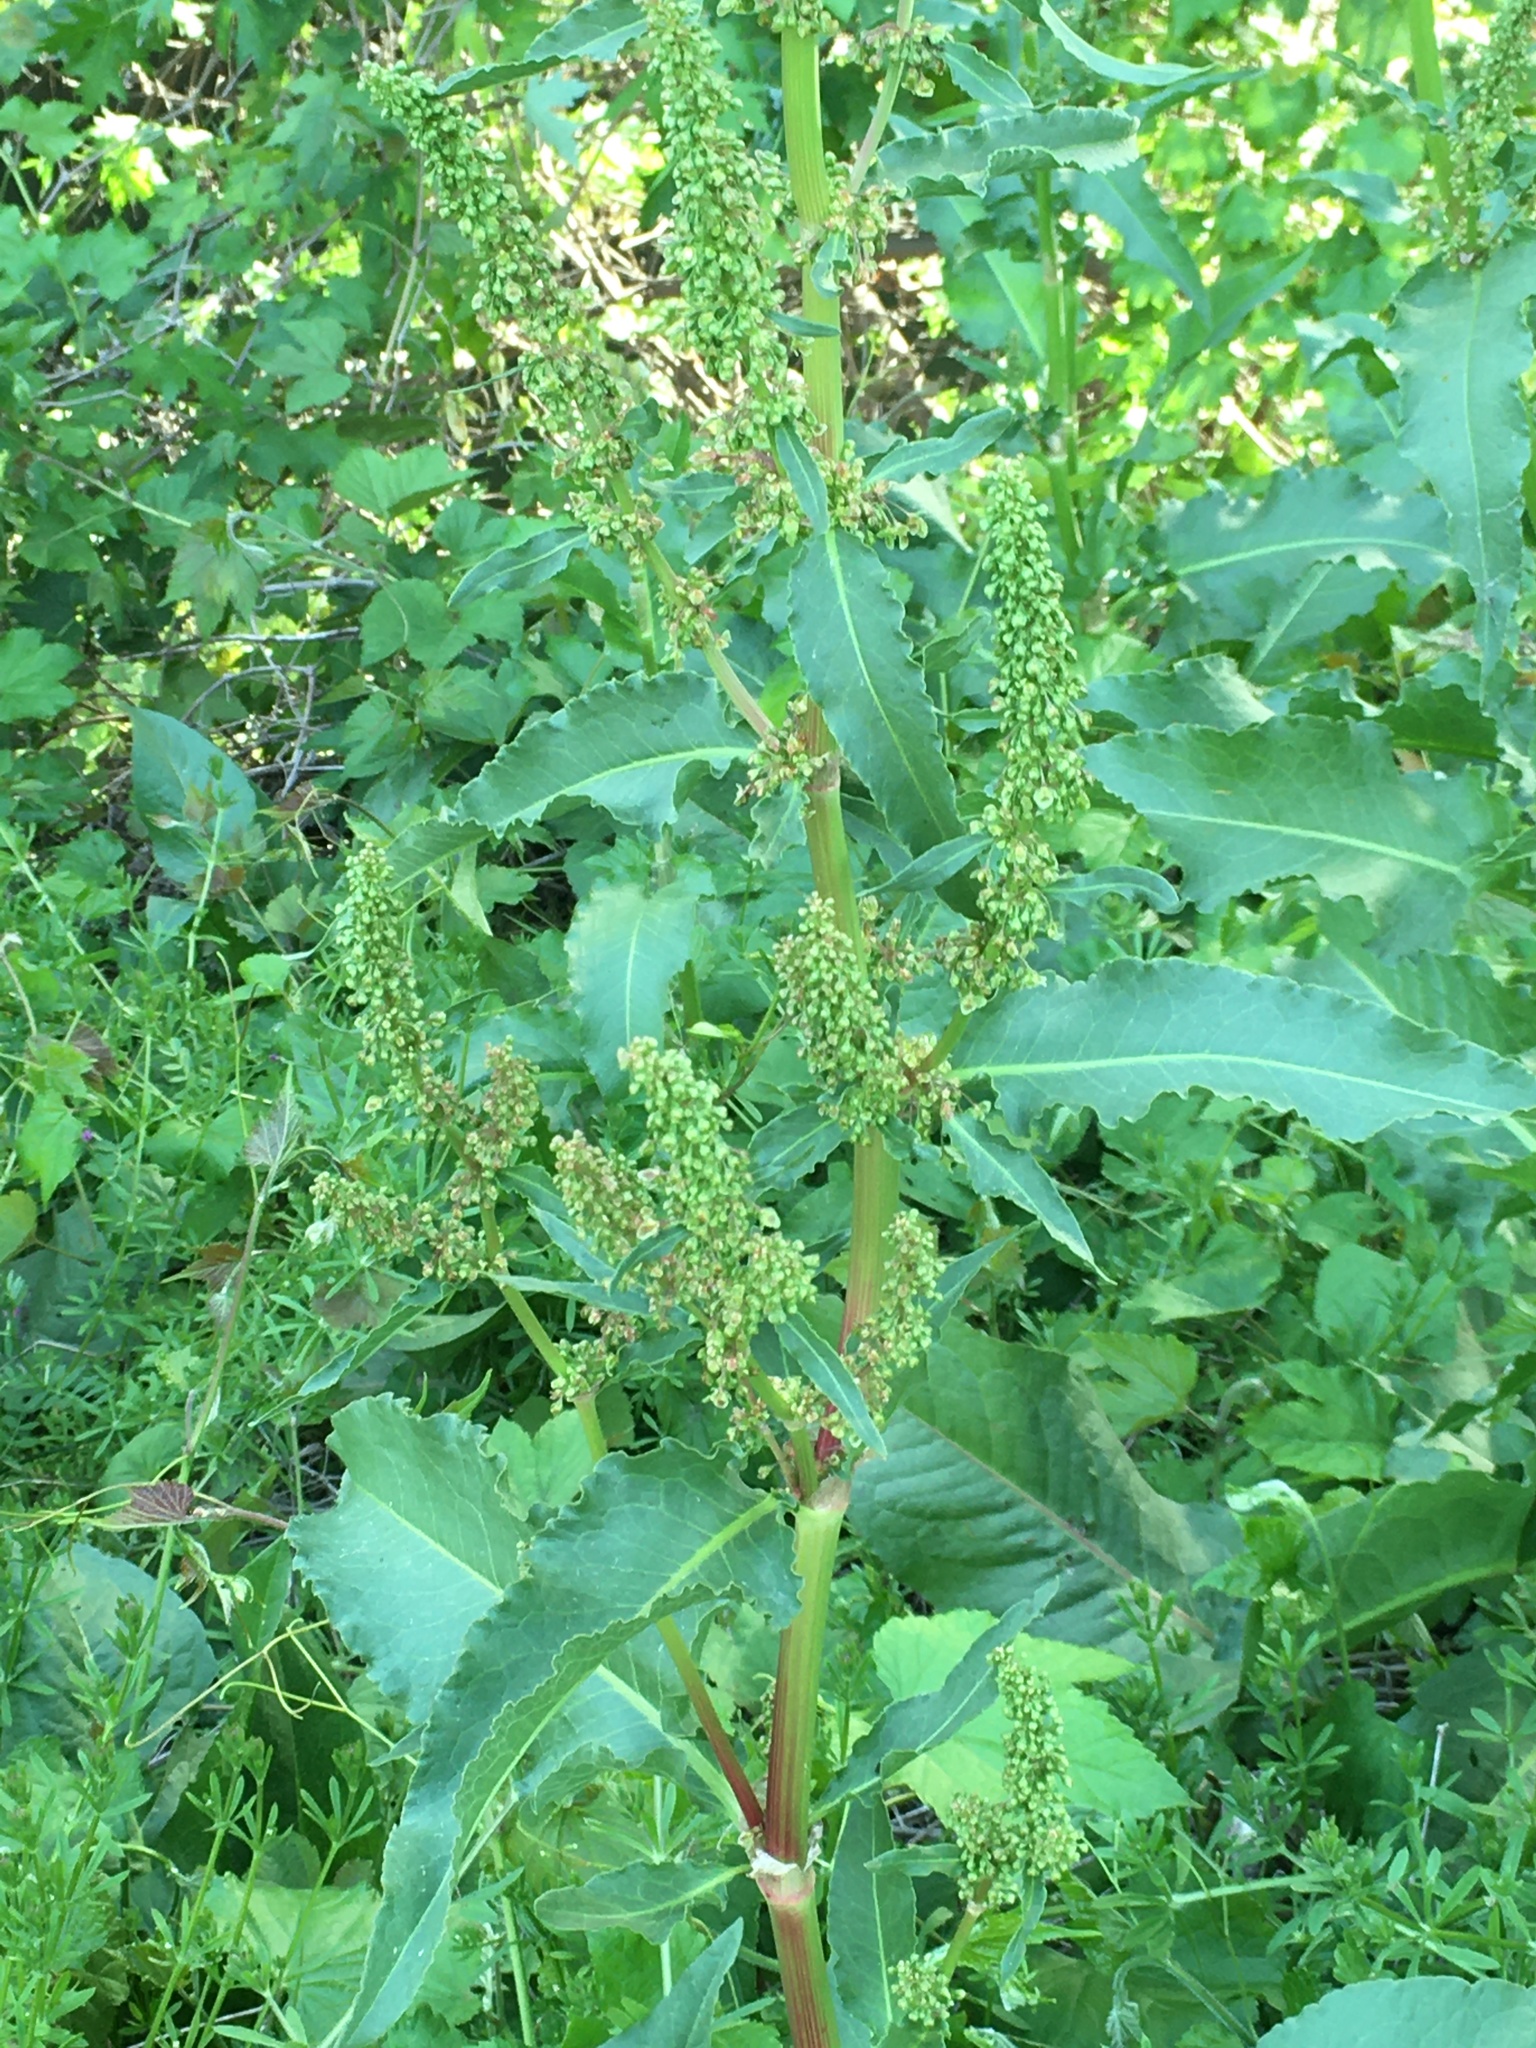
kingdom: Plantae
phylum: Tracheophyta
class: Magnoliopsida
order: Caryophyllales
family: Polygonaceae
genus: Rumex
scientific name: Rumex crispus
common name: Curled dock
